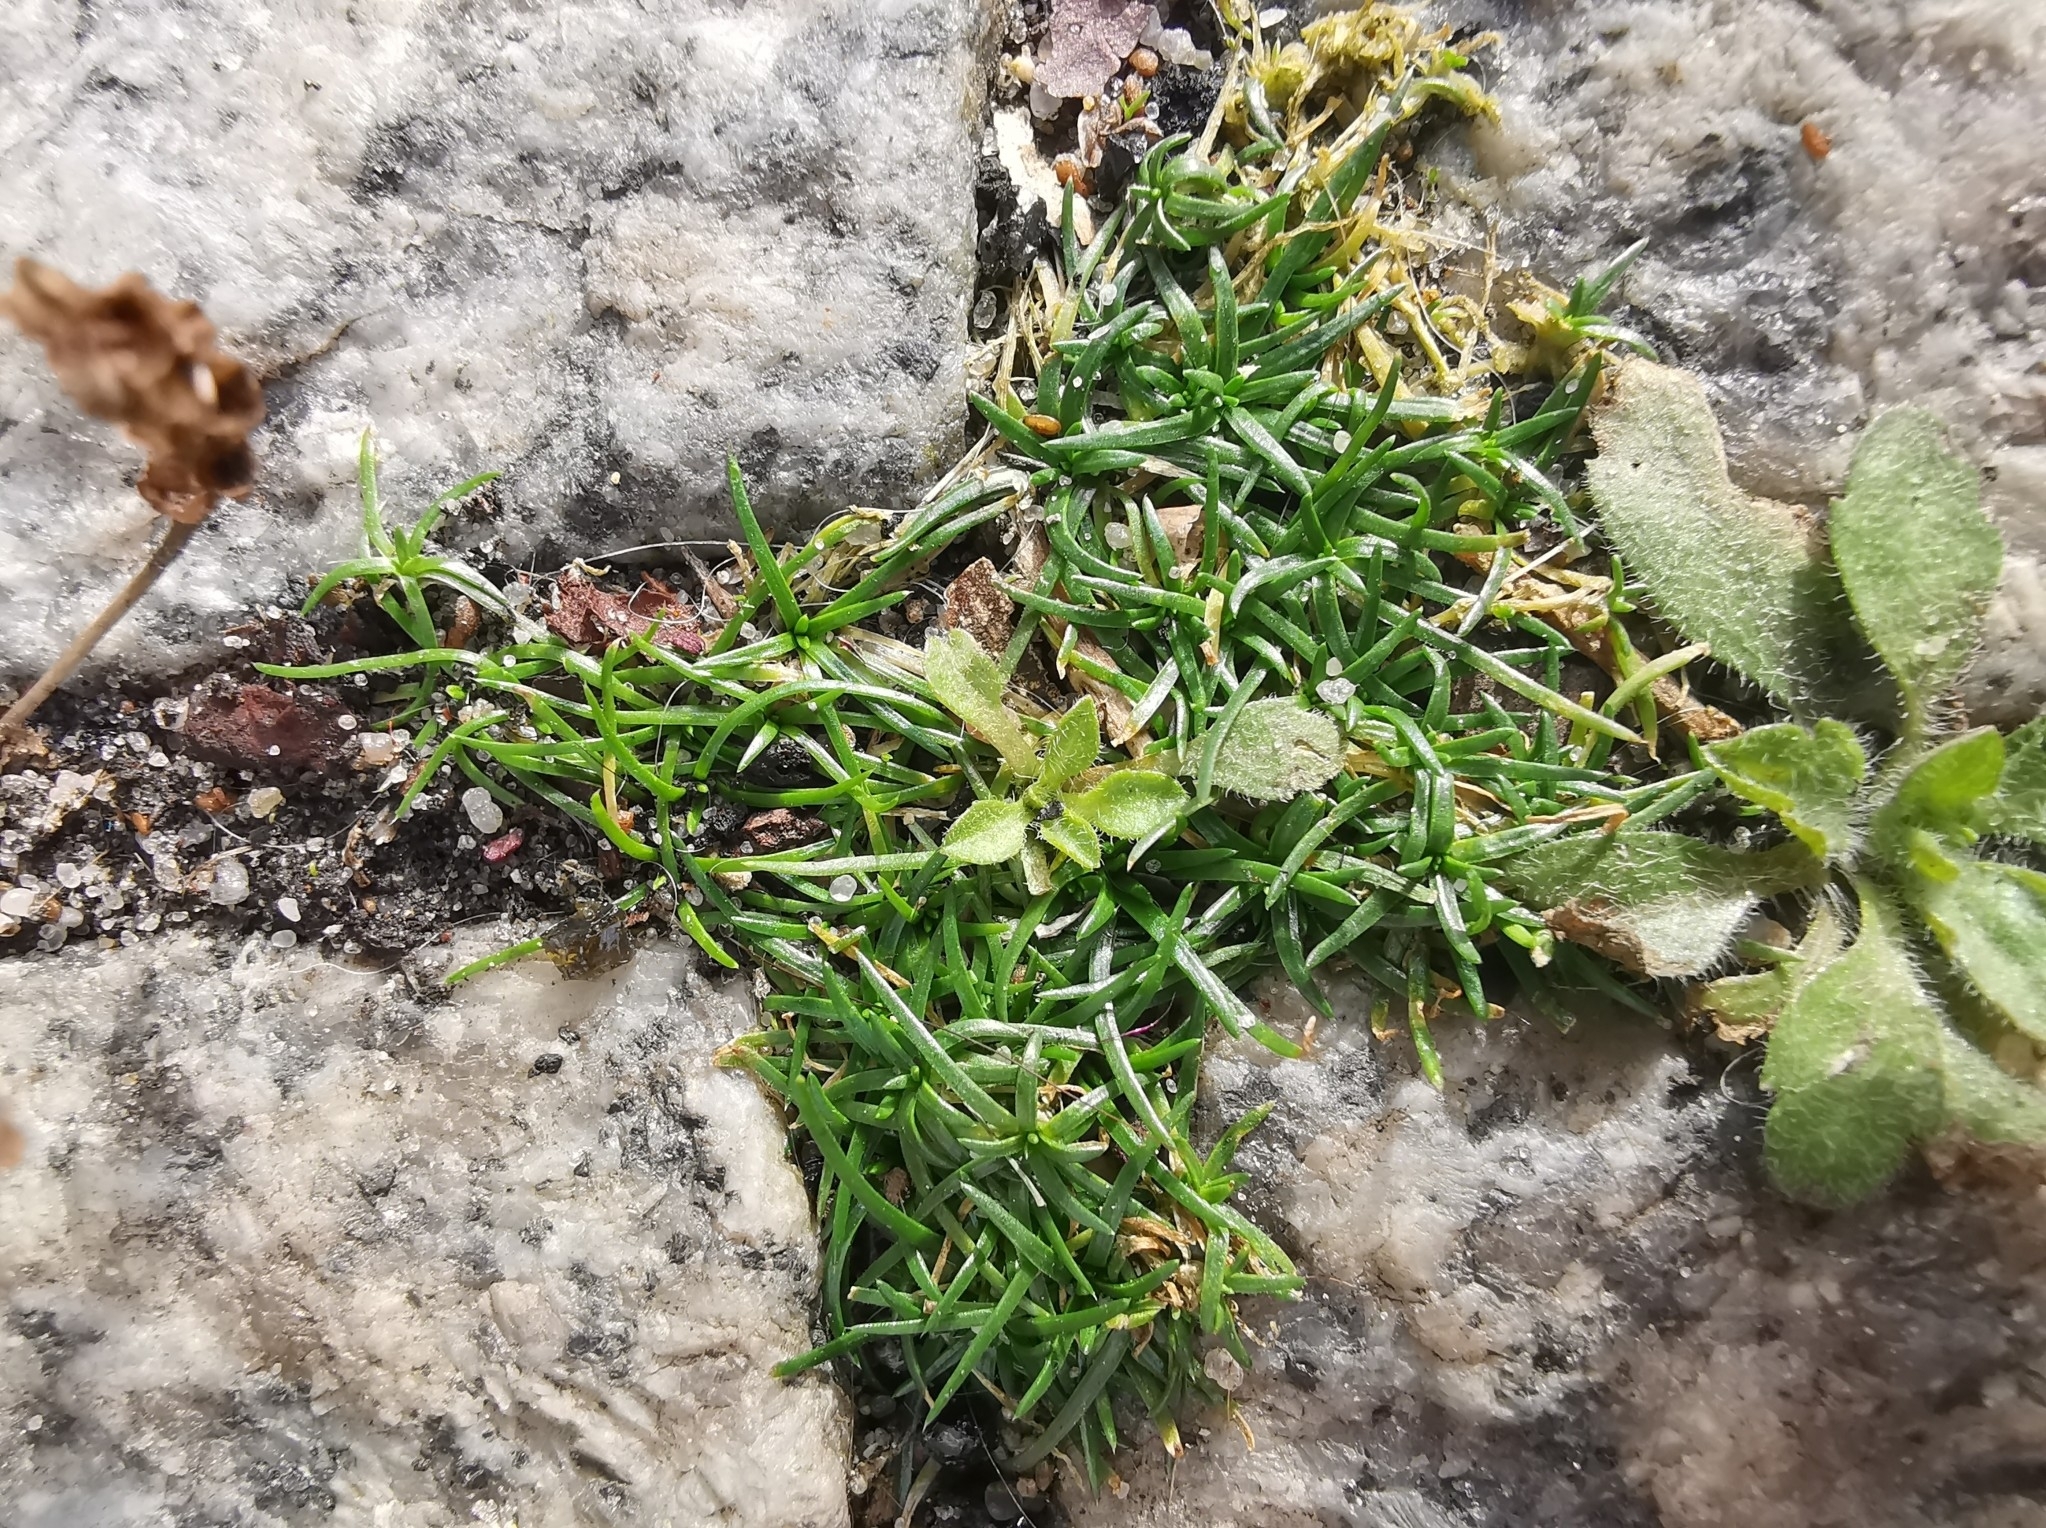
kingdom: Plantae
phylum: Tracheophyta
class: Magnoliopsida
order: Caryophyllales
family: Caryophyllaceae
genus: Sagina
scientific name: Sagina procumbens
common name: Procumbent pearlwort
